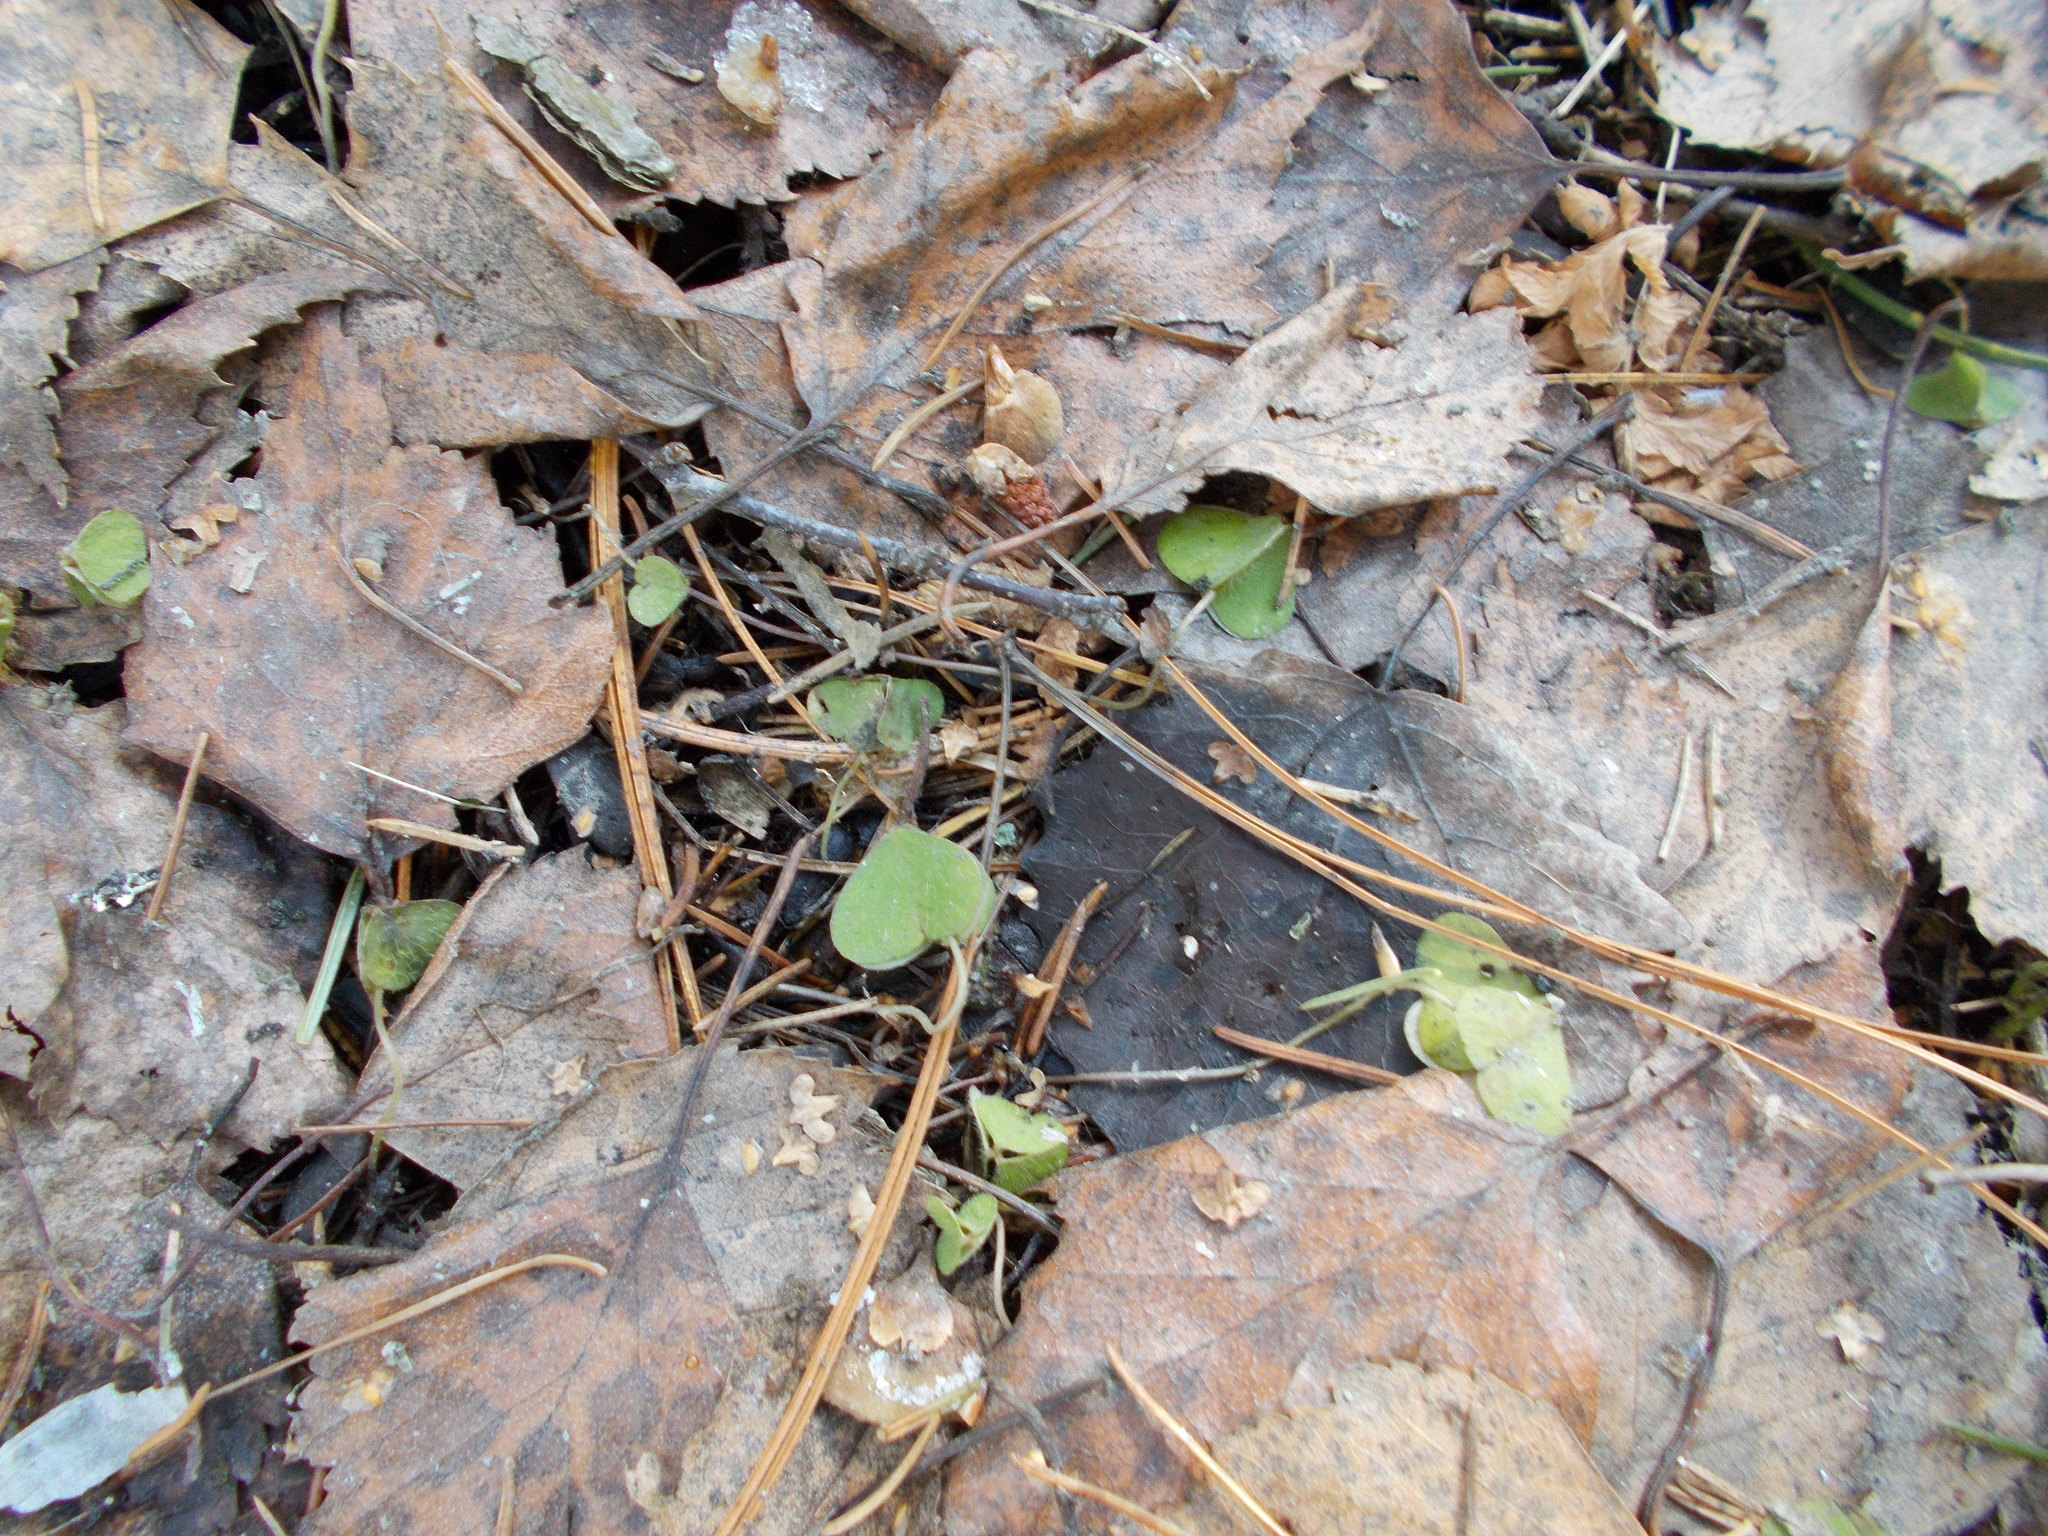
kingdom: Plantae
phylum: Tracheophyta
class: Magnoliopsida
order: Oxalidales
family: Oxalidaceae
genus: Oxalis
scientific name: Oxalis acetosella
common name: Wood-sorrel
